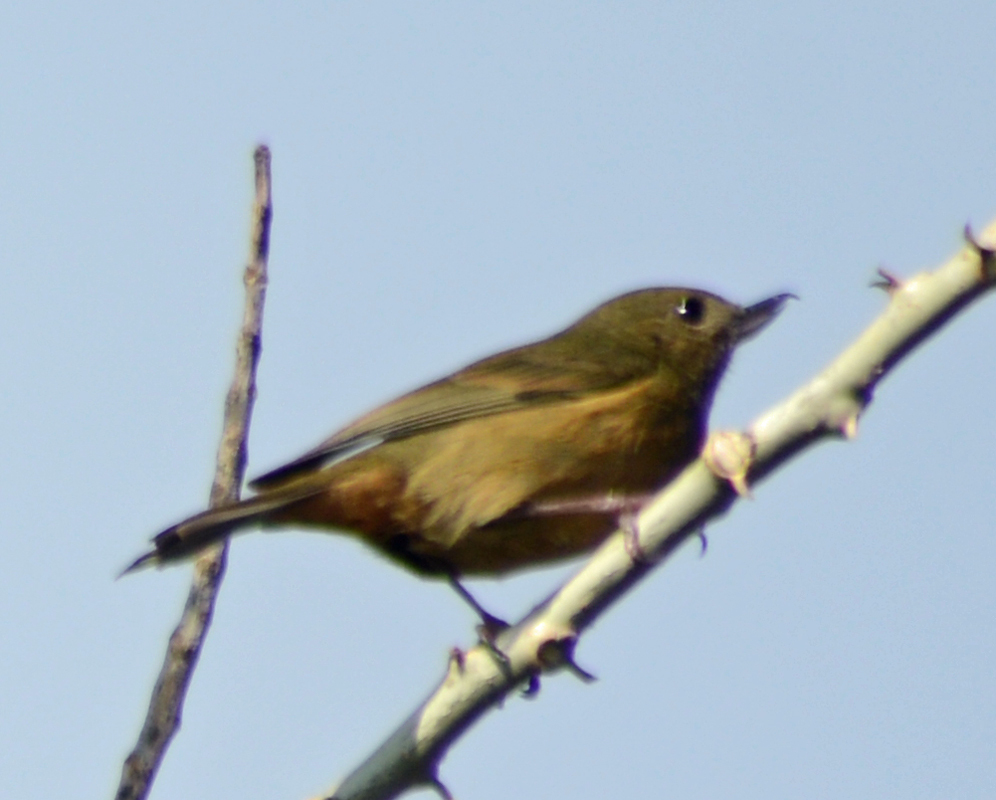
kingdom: Animalia
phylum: Chordata
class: Aves
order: Passeriformes
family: Thraupidae
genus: Diglossa
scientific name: Diglossa baritula
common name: Cinnamon-bellied flowerpiercer
